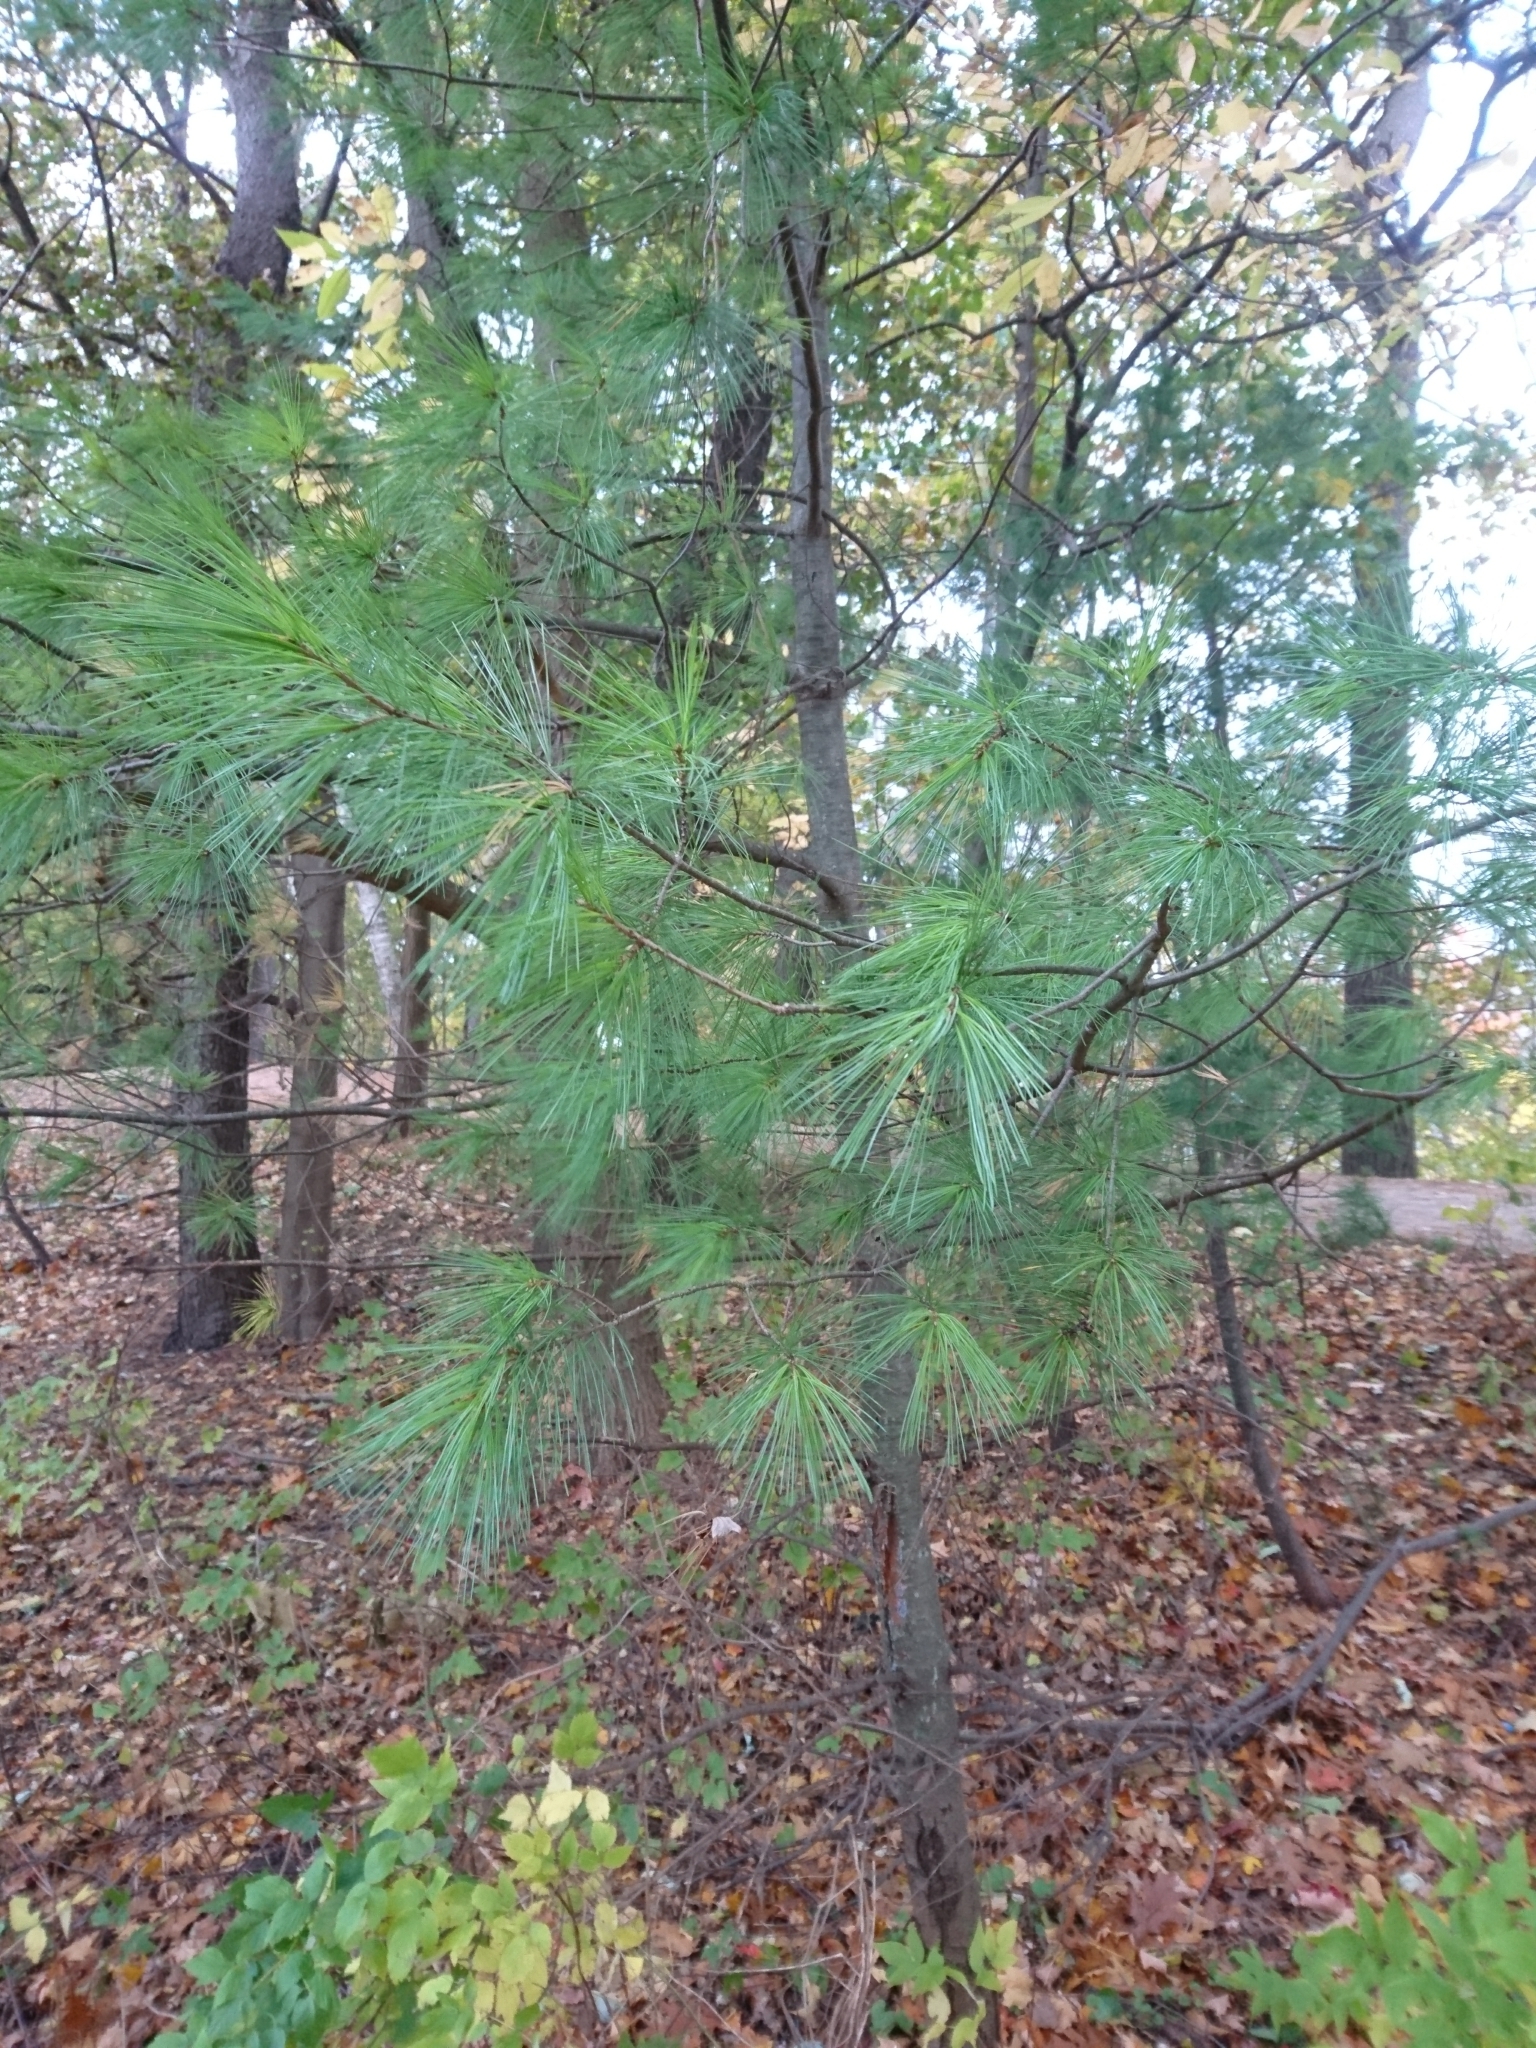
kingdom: Plantae
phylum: Tracheophyta
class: Pinopsida
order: Pinales
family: Pinaceae
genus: Pinus
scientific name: Pinus strobus
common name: Weymouth pine
